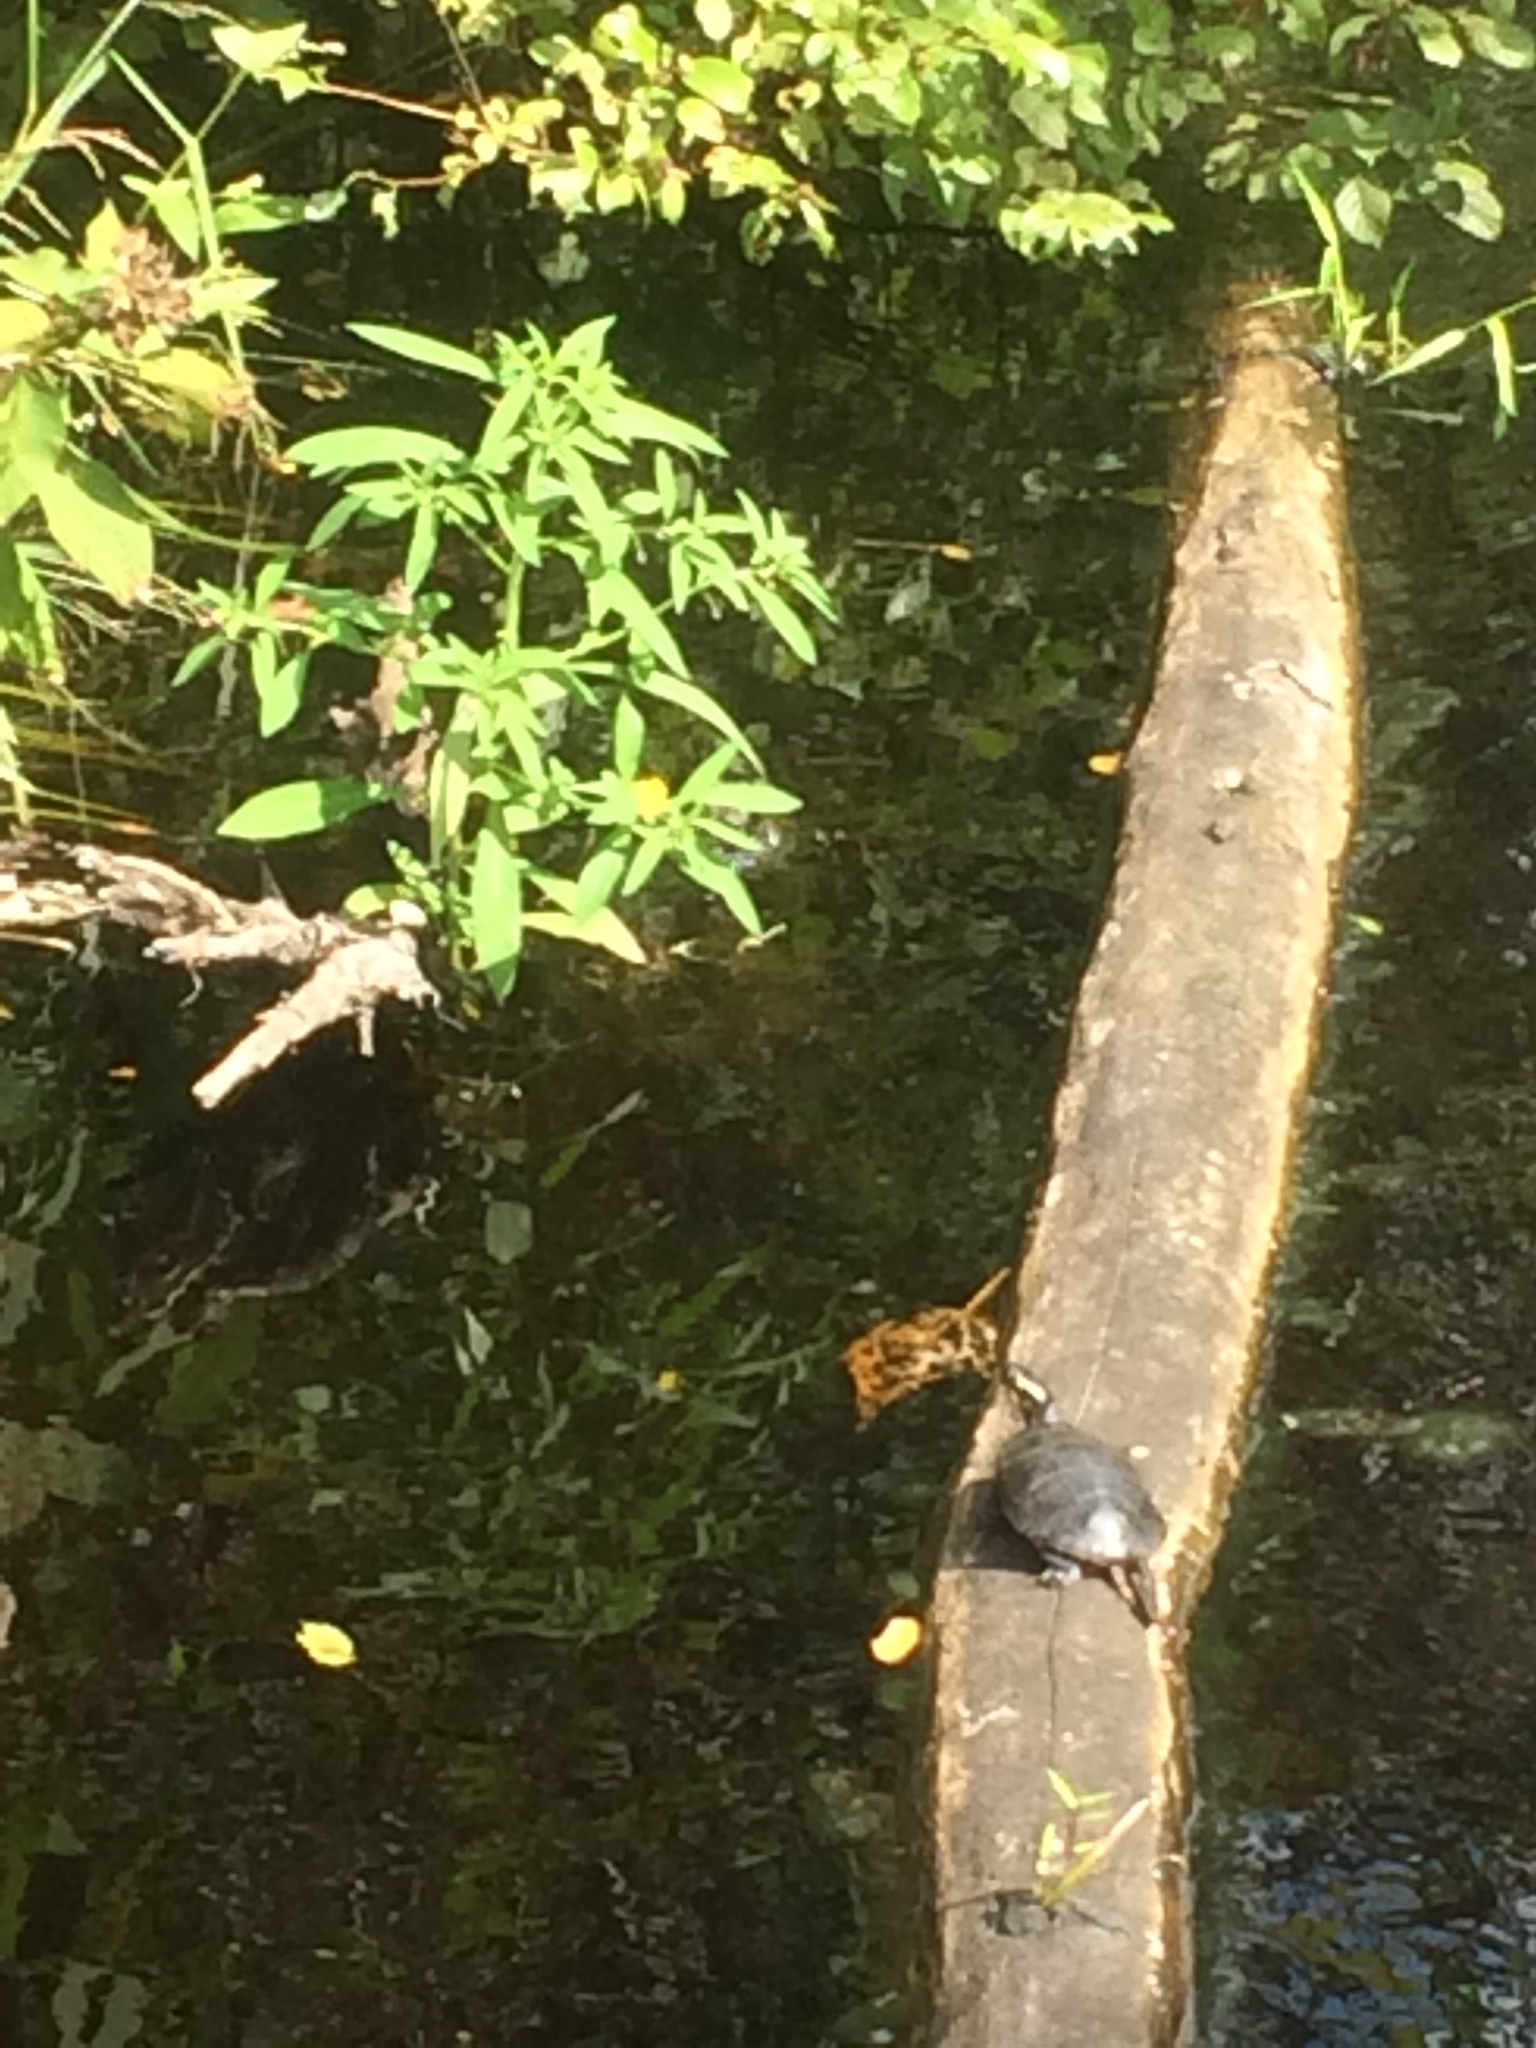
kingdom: Animalia
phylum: Chordata
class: Testudines
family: Emydidae
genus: Chrysemys
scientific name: Chrysemys picta
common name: Painted turtle
